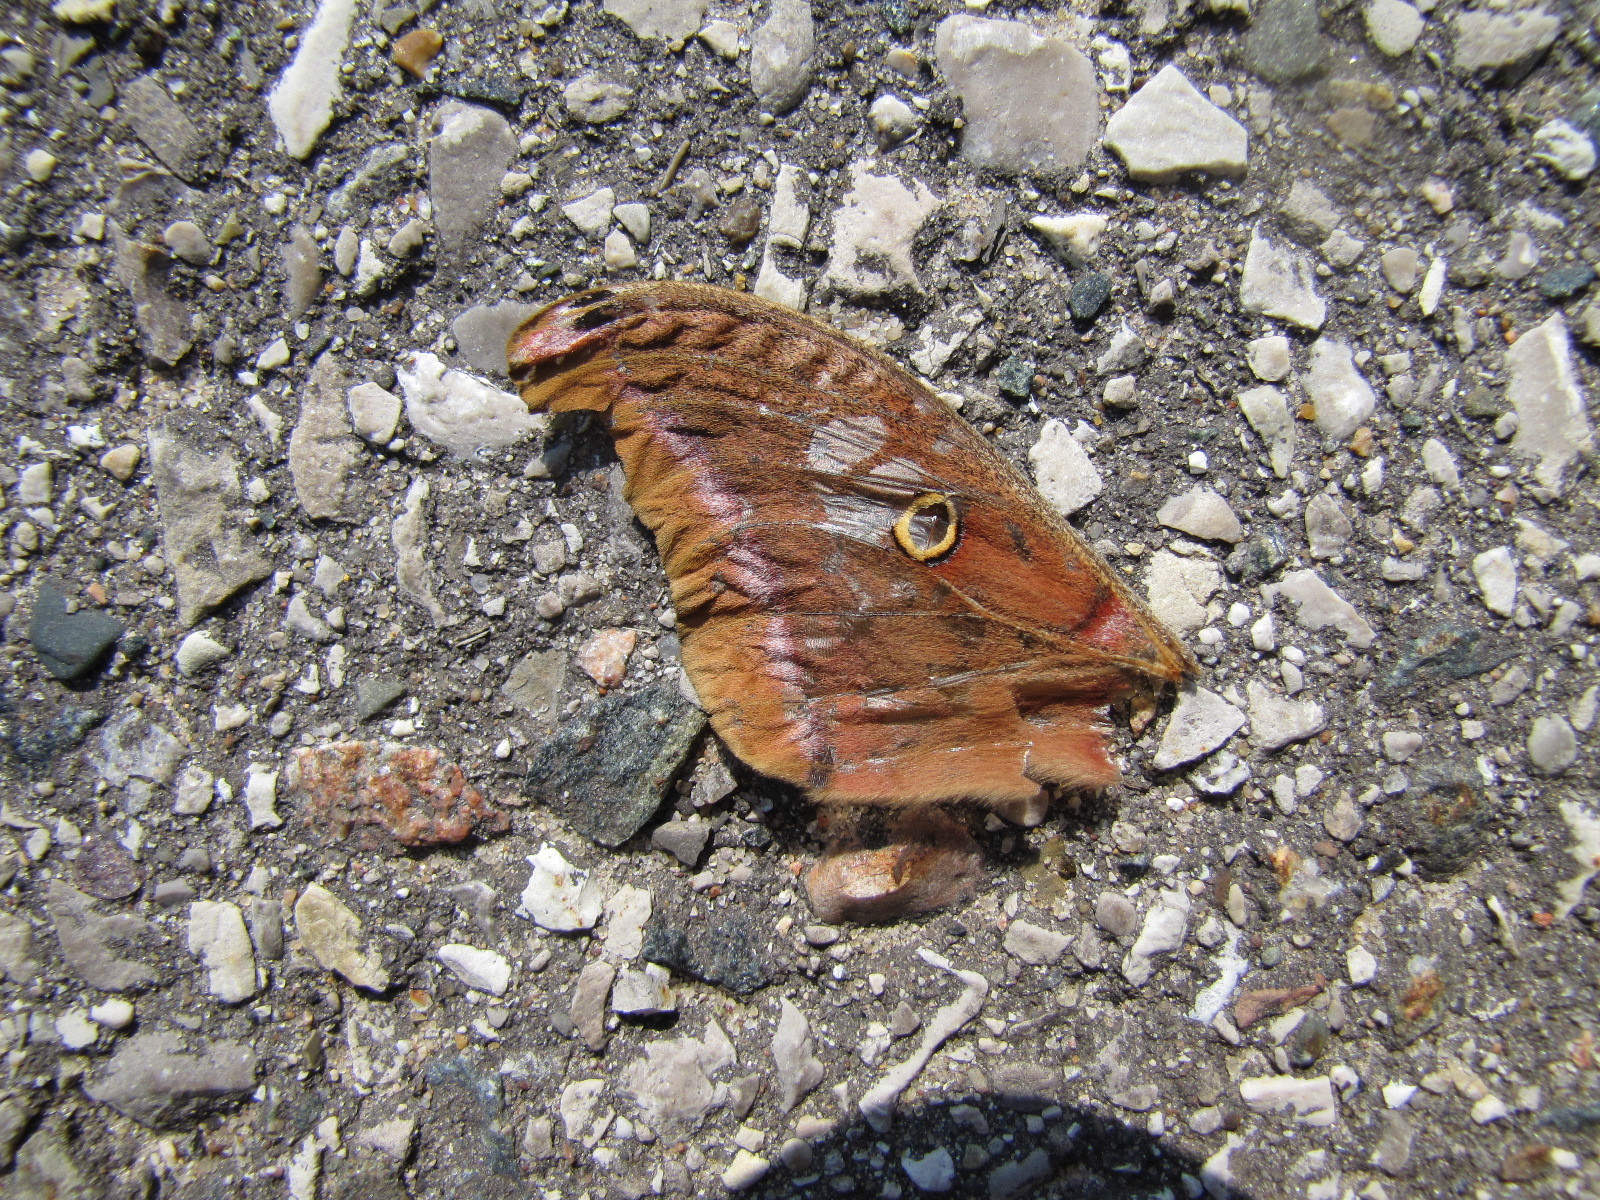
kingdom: Animalia
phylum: Arthropoda
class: Insecta
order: Lepidoptera
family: Saturniidae
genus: Antheraea
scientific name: Antheraea polyphemus
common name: Polyphemus moth
